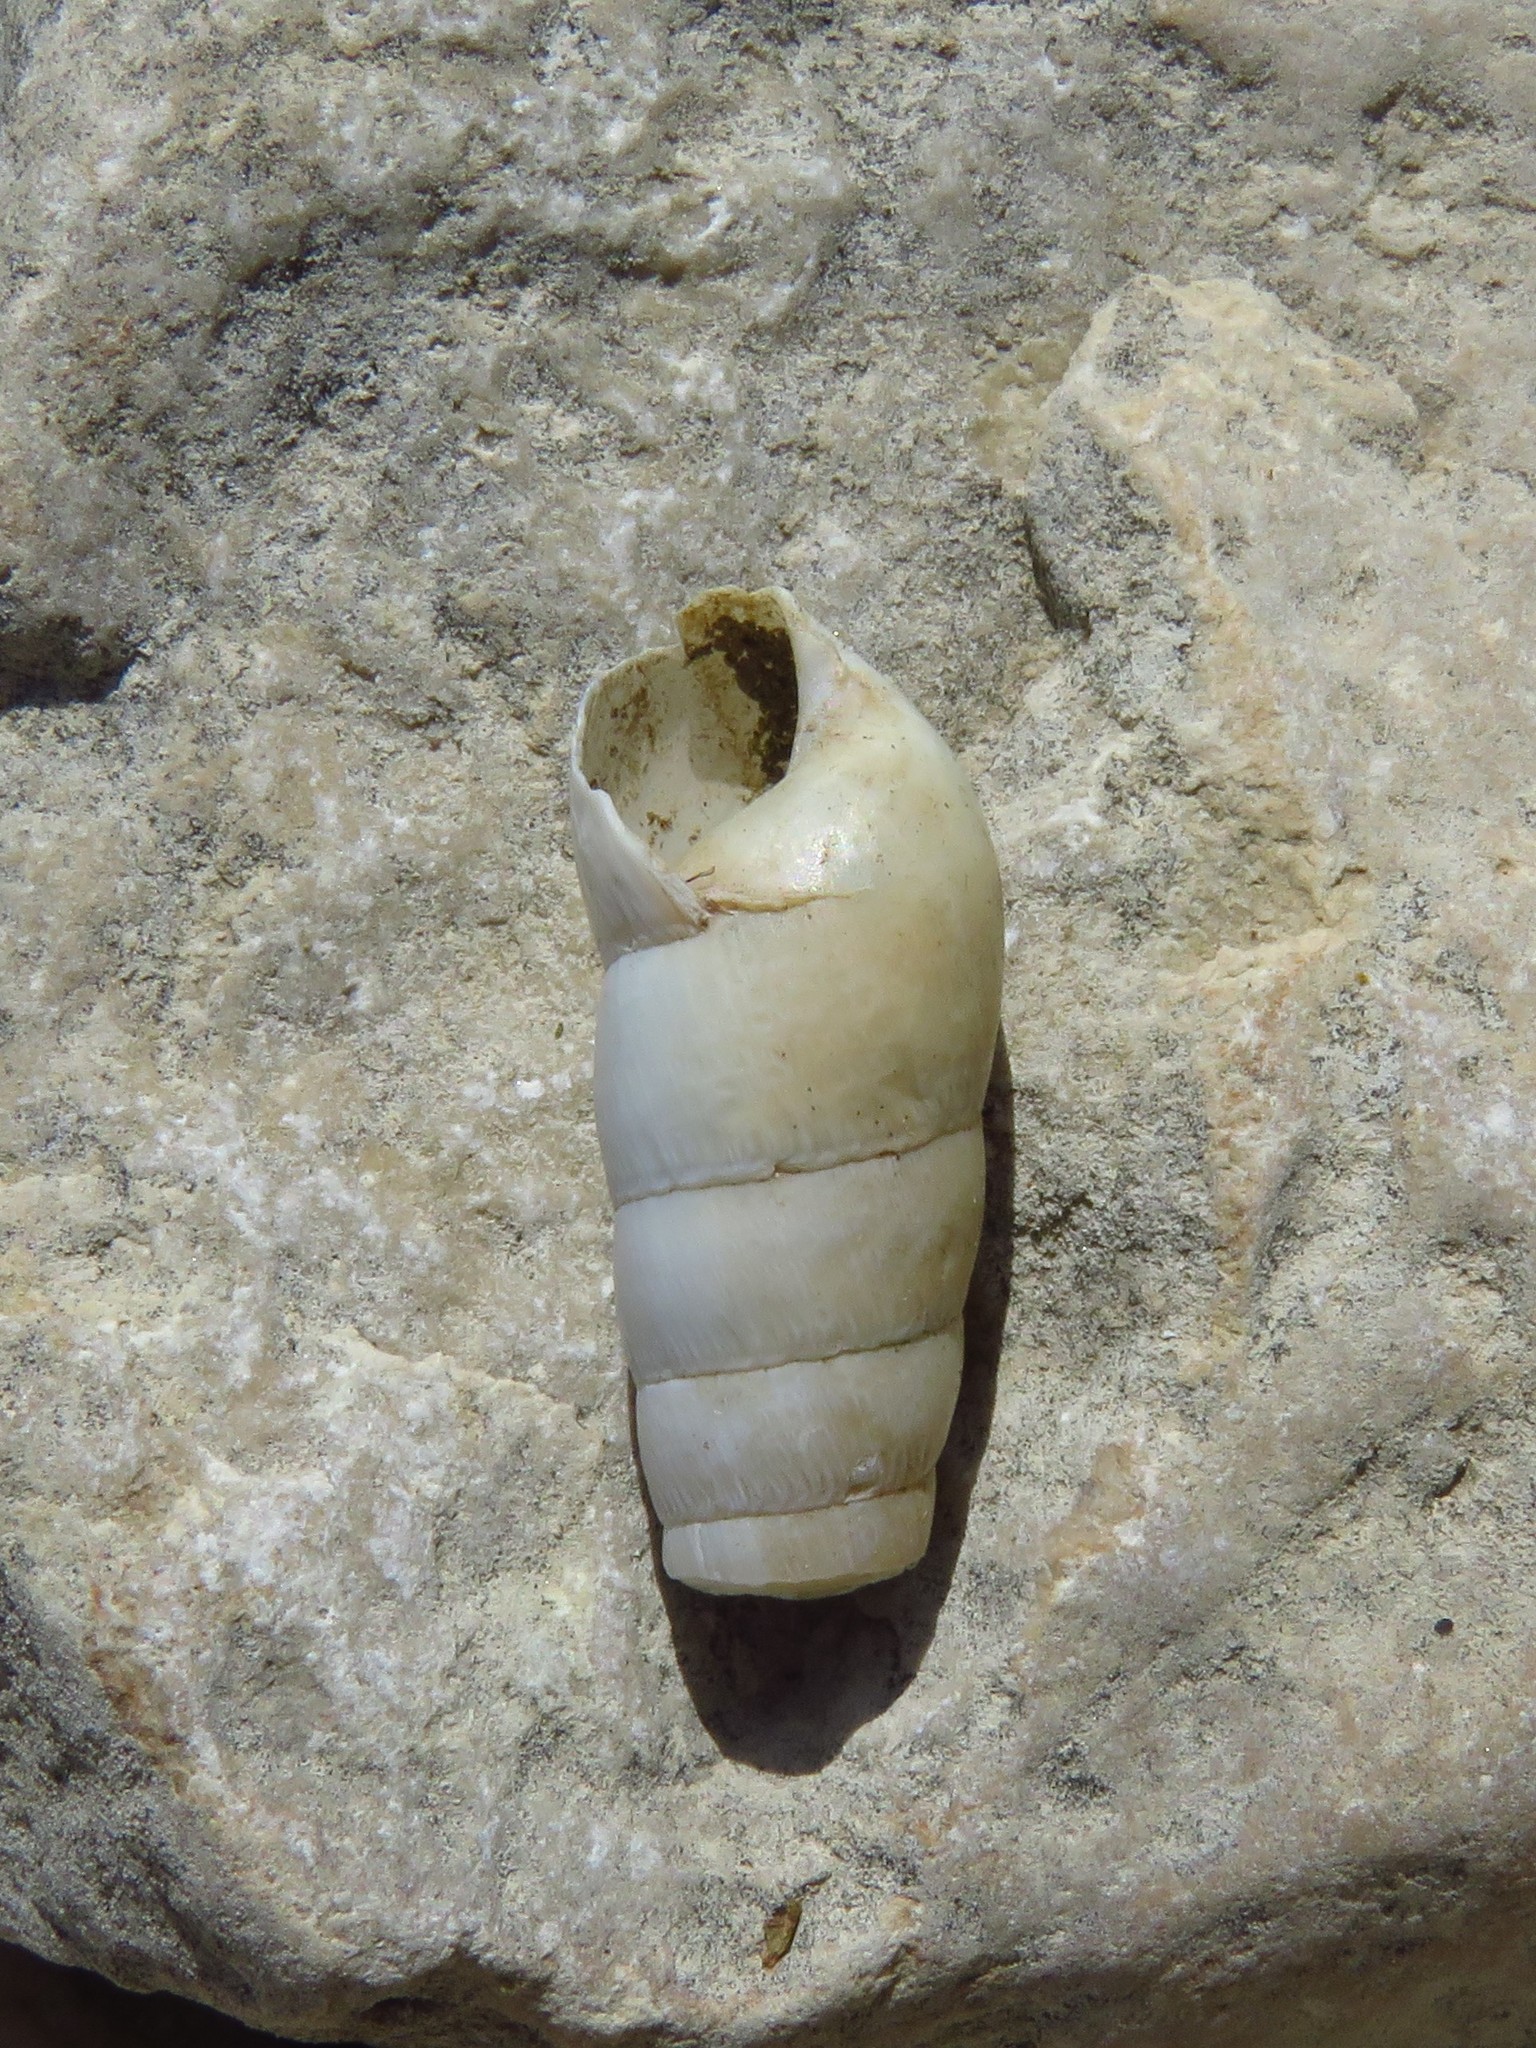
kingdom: Animalia
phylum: Mollusca
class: Gastropoda
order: Stylommatophora
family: Achatinidae
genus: Rumina
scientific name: Rumina decollata
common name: Decollate snail
